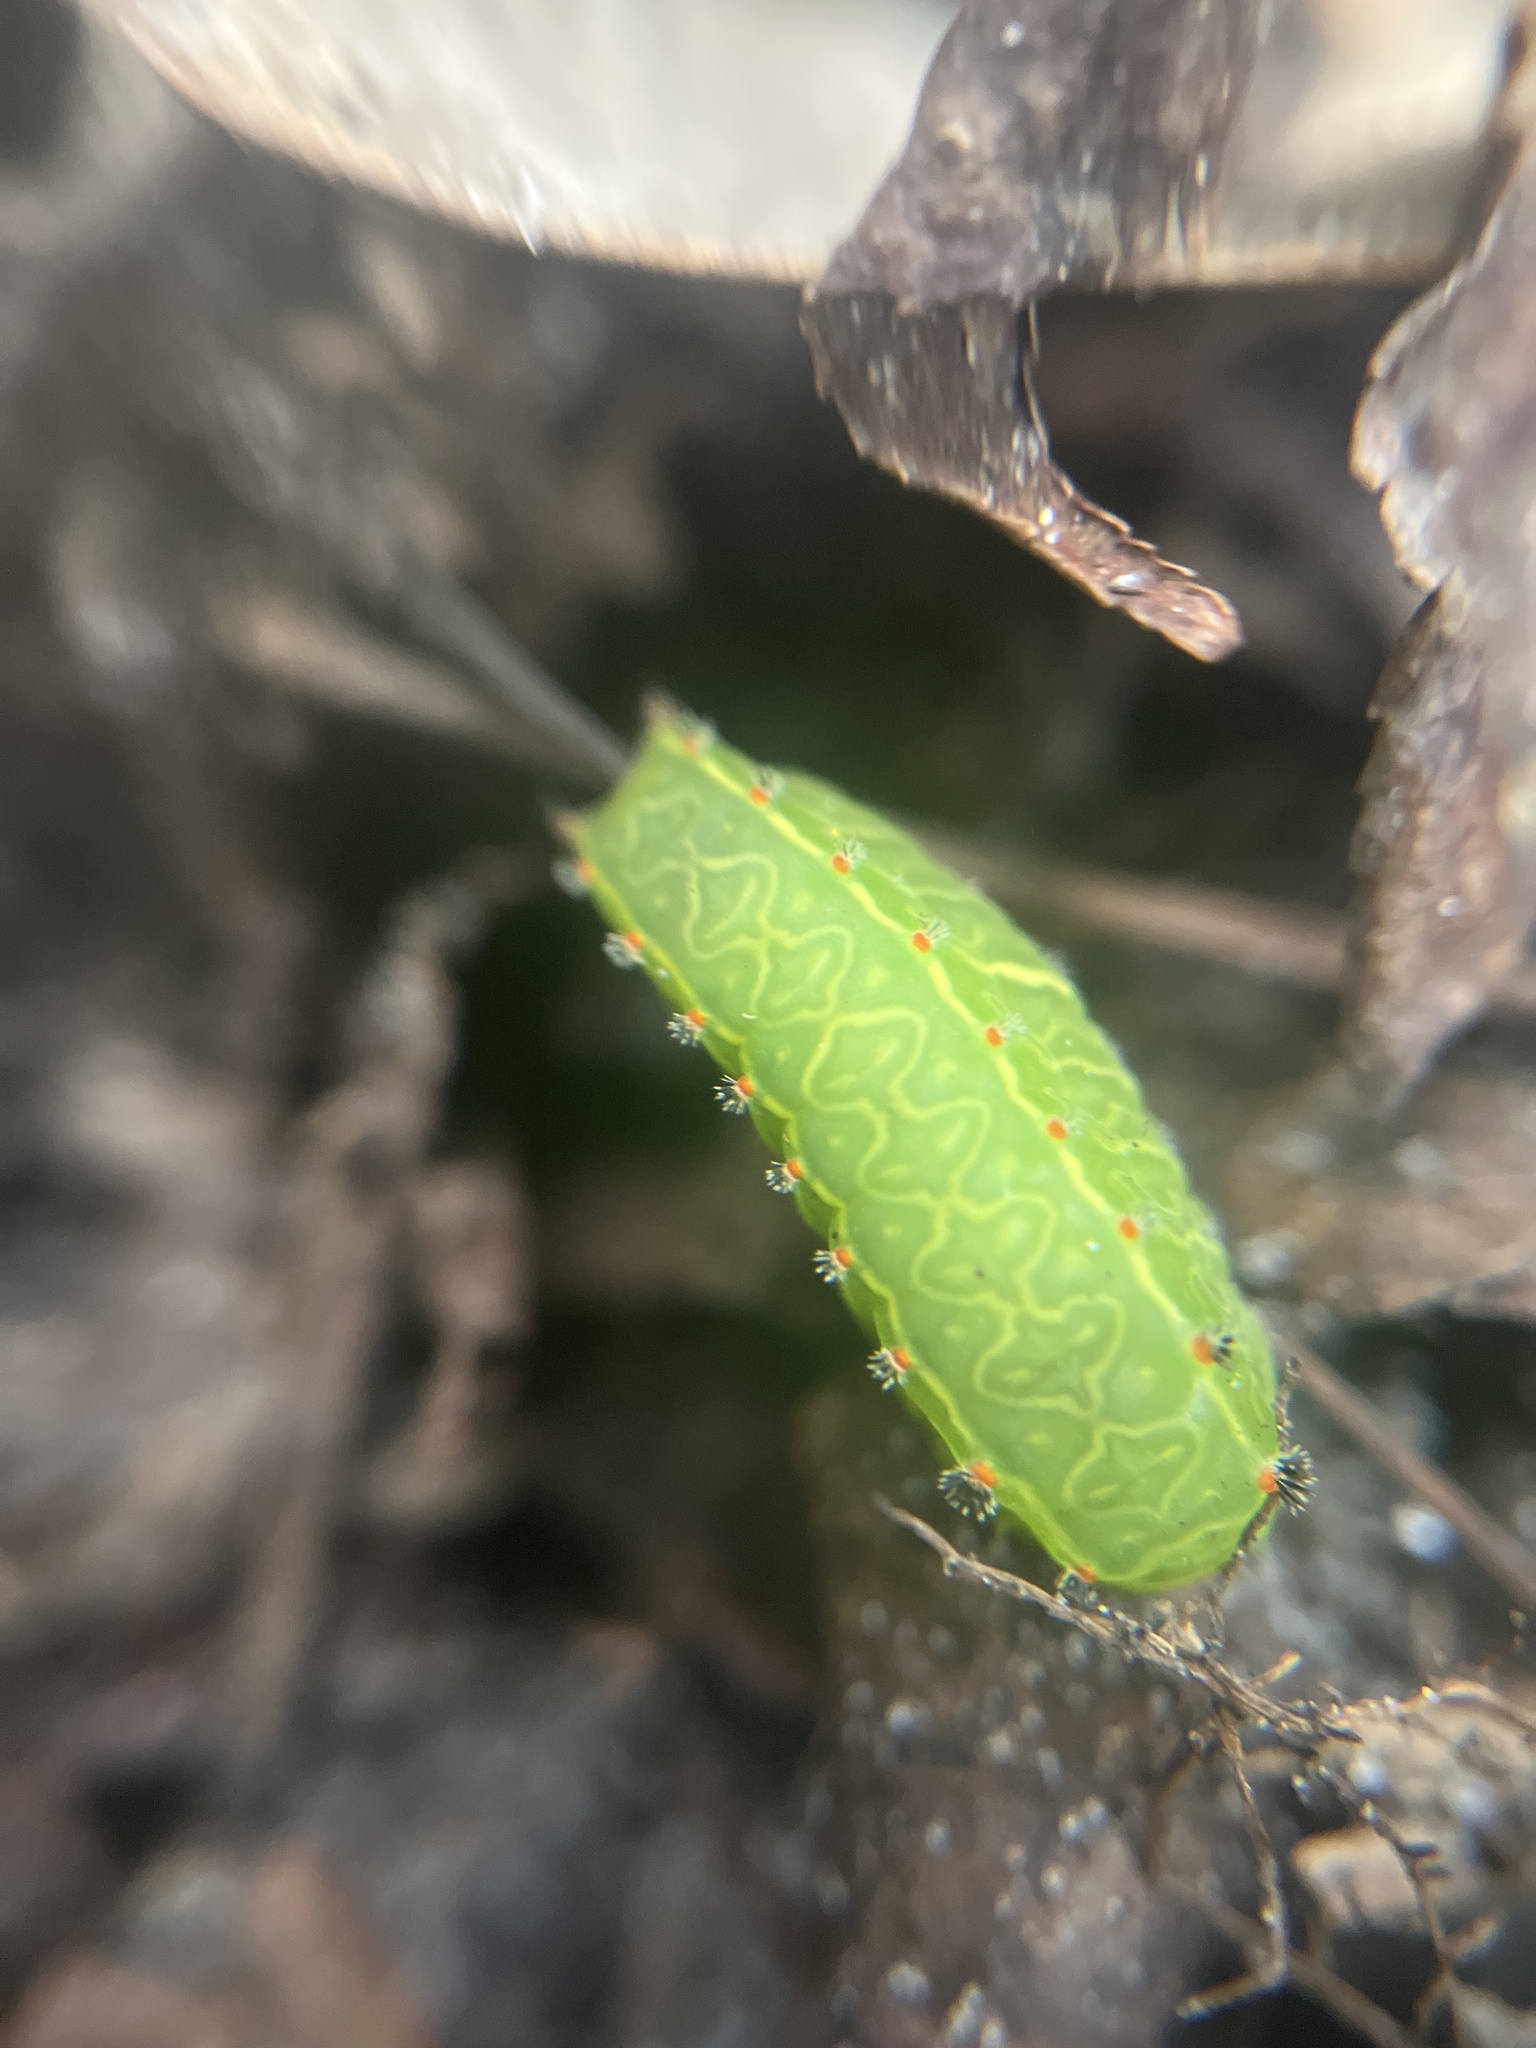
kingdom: Animalia
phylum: Arthropoda
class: Insecta
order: Lepidoptera
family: Limacodidae
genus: Natada
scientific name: Natada nasoni
